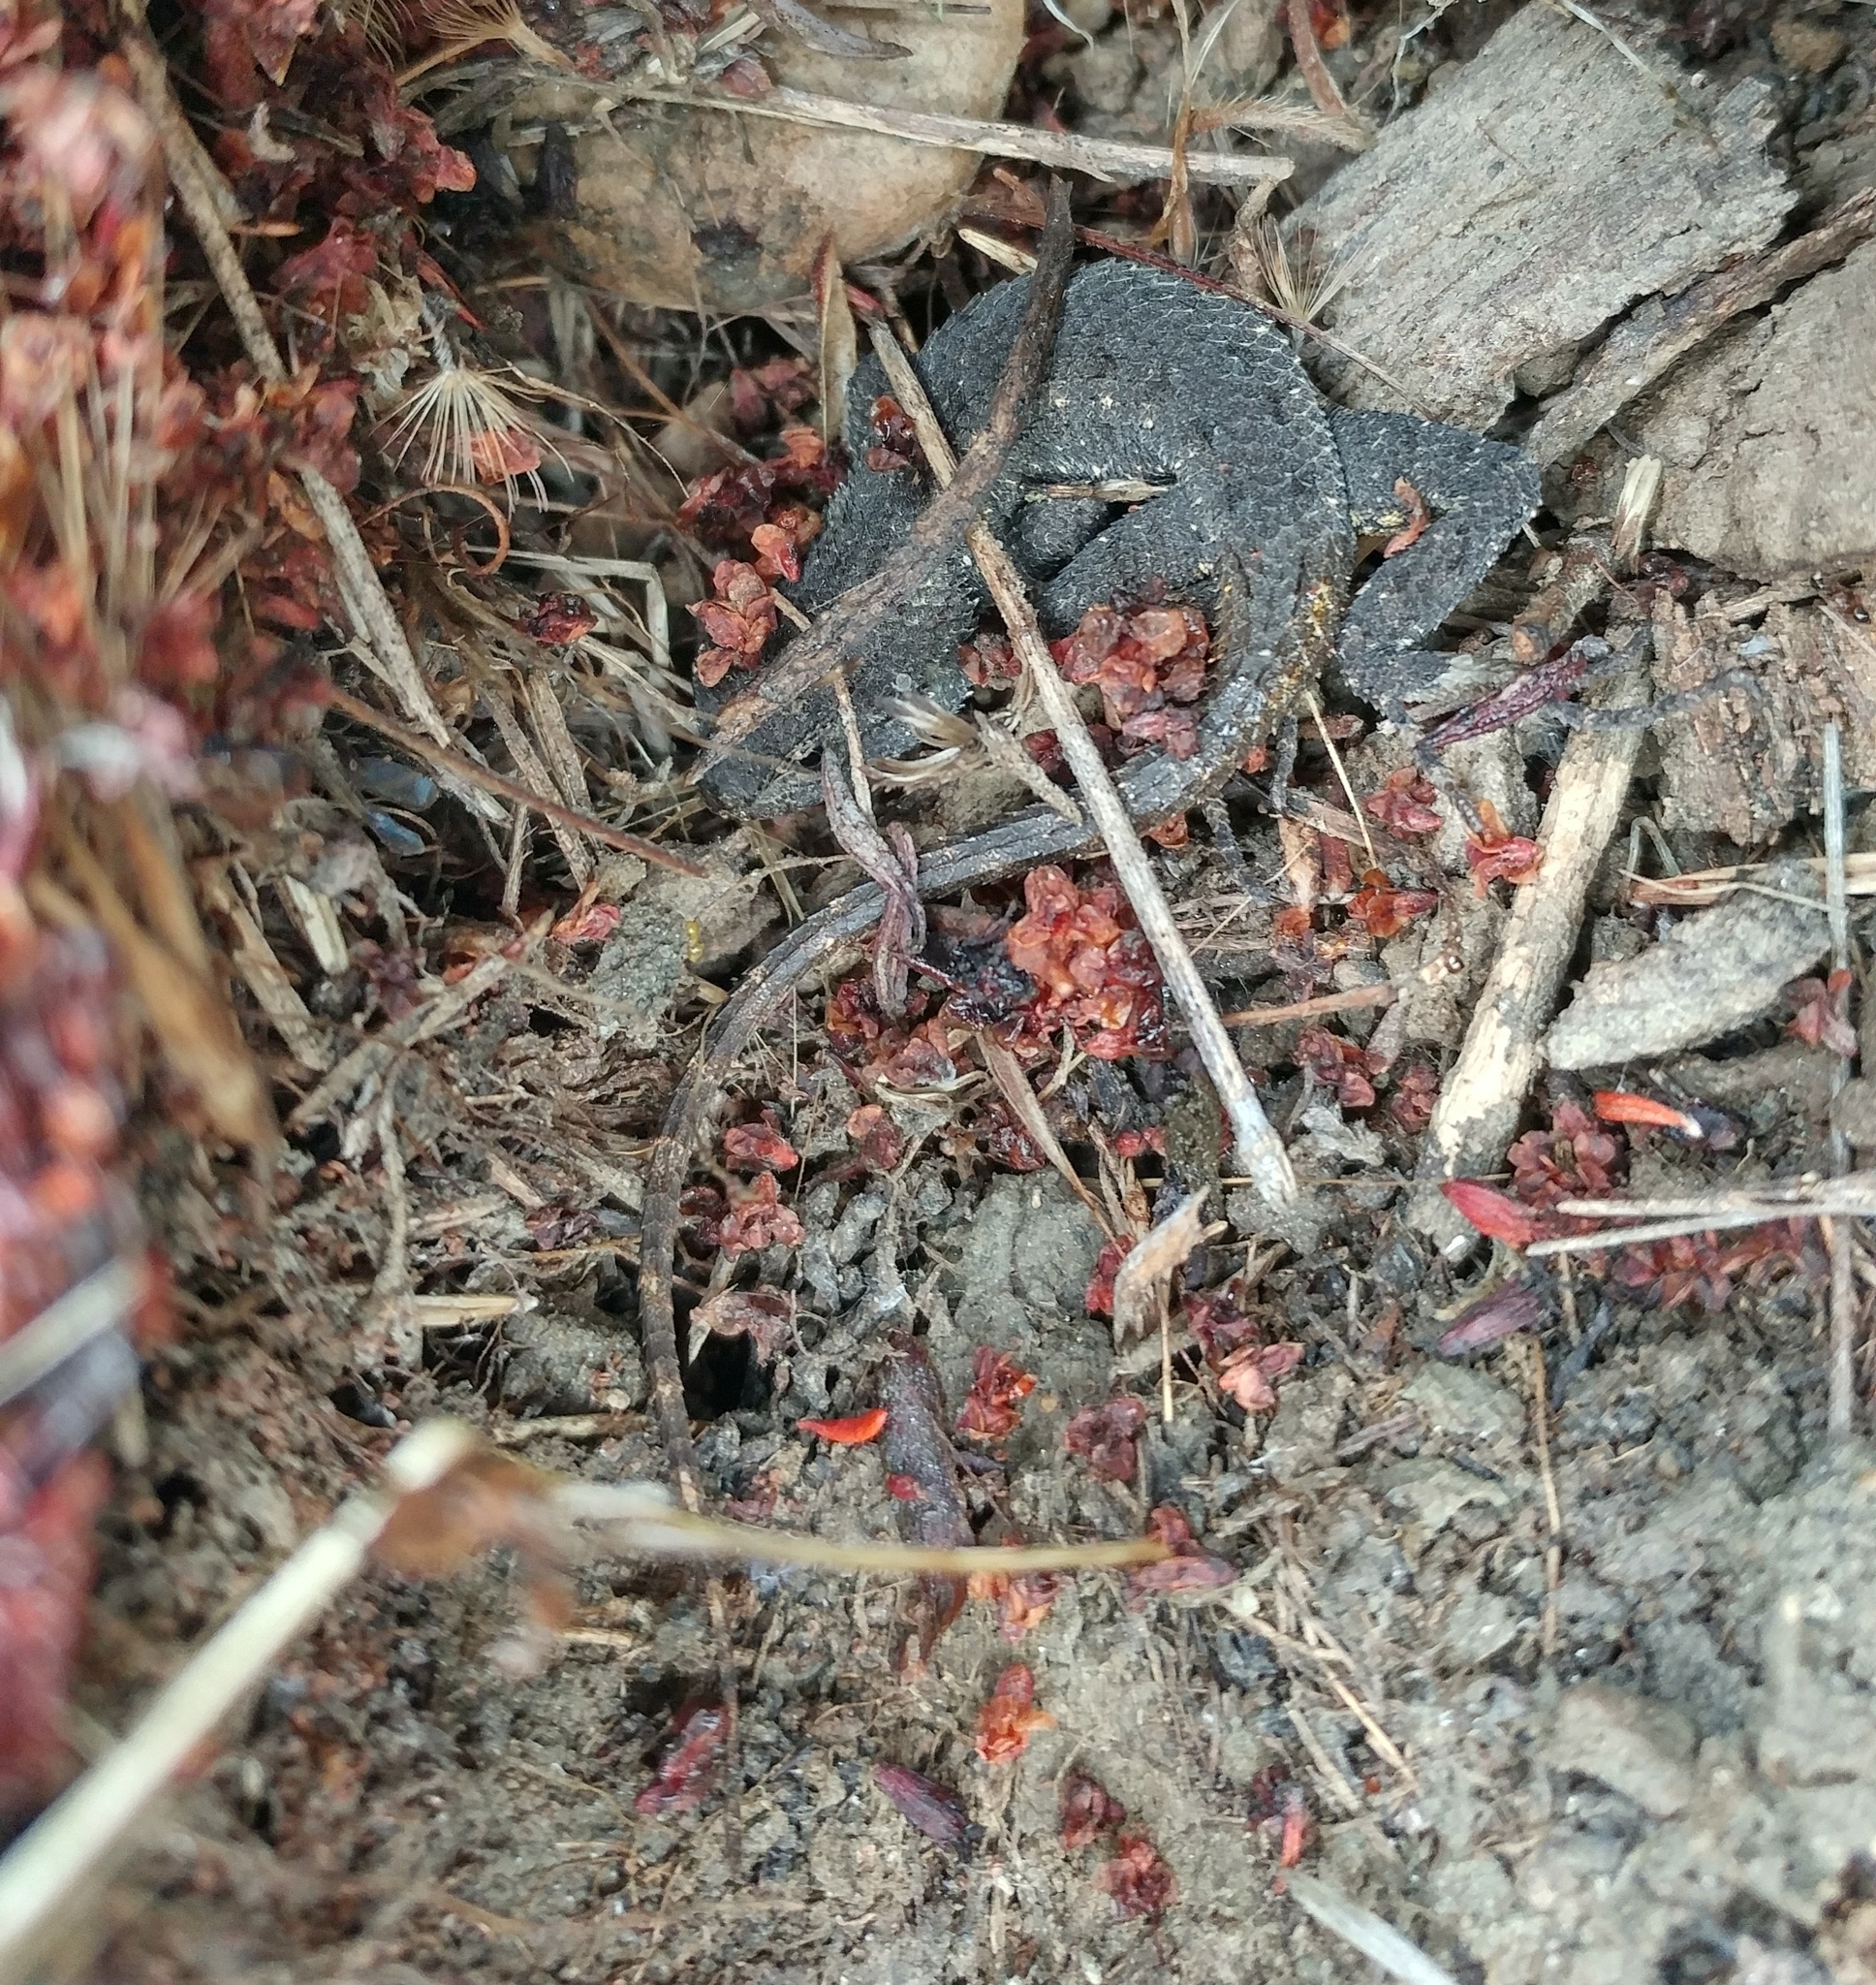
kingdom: Animalia
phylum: Chordata
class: Squamata
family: Phrynosomatidae
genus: Sceloporus
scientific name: Sceloporus occidentalis
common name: Western fence lizard
